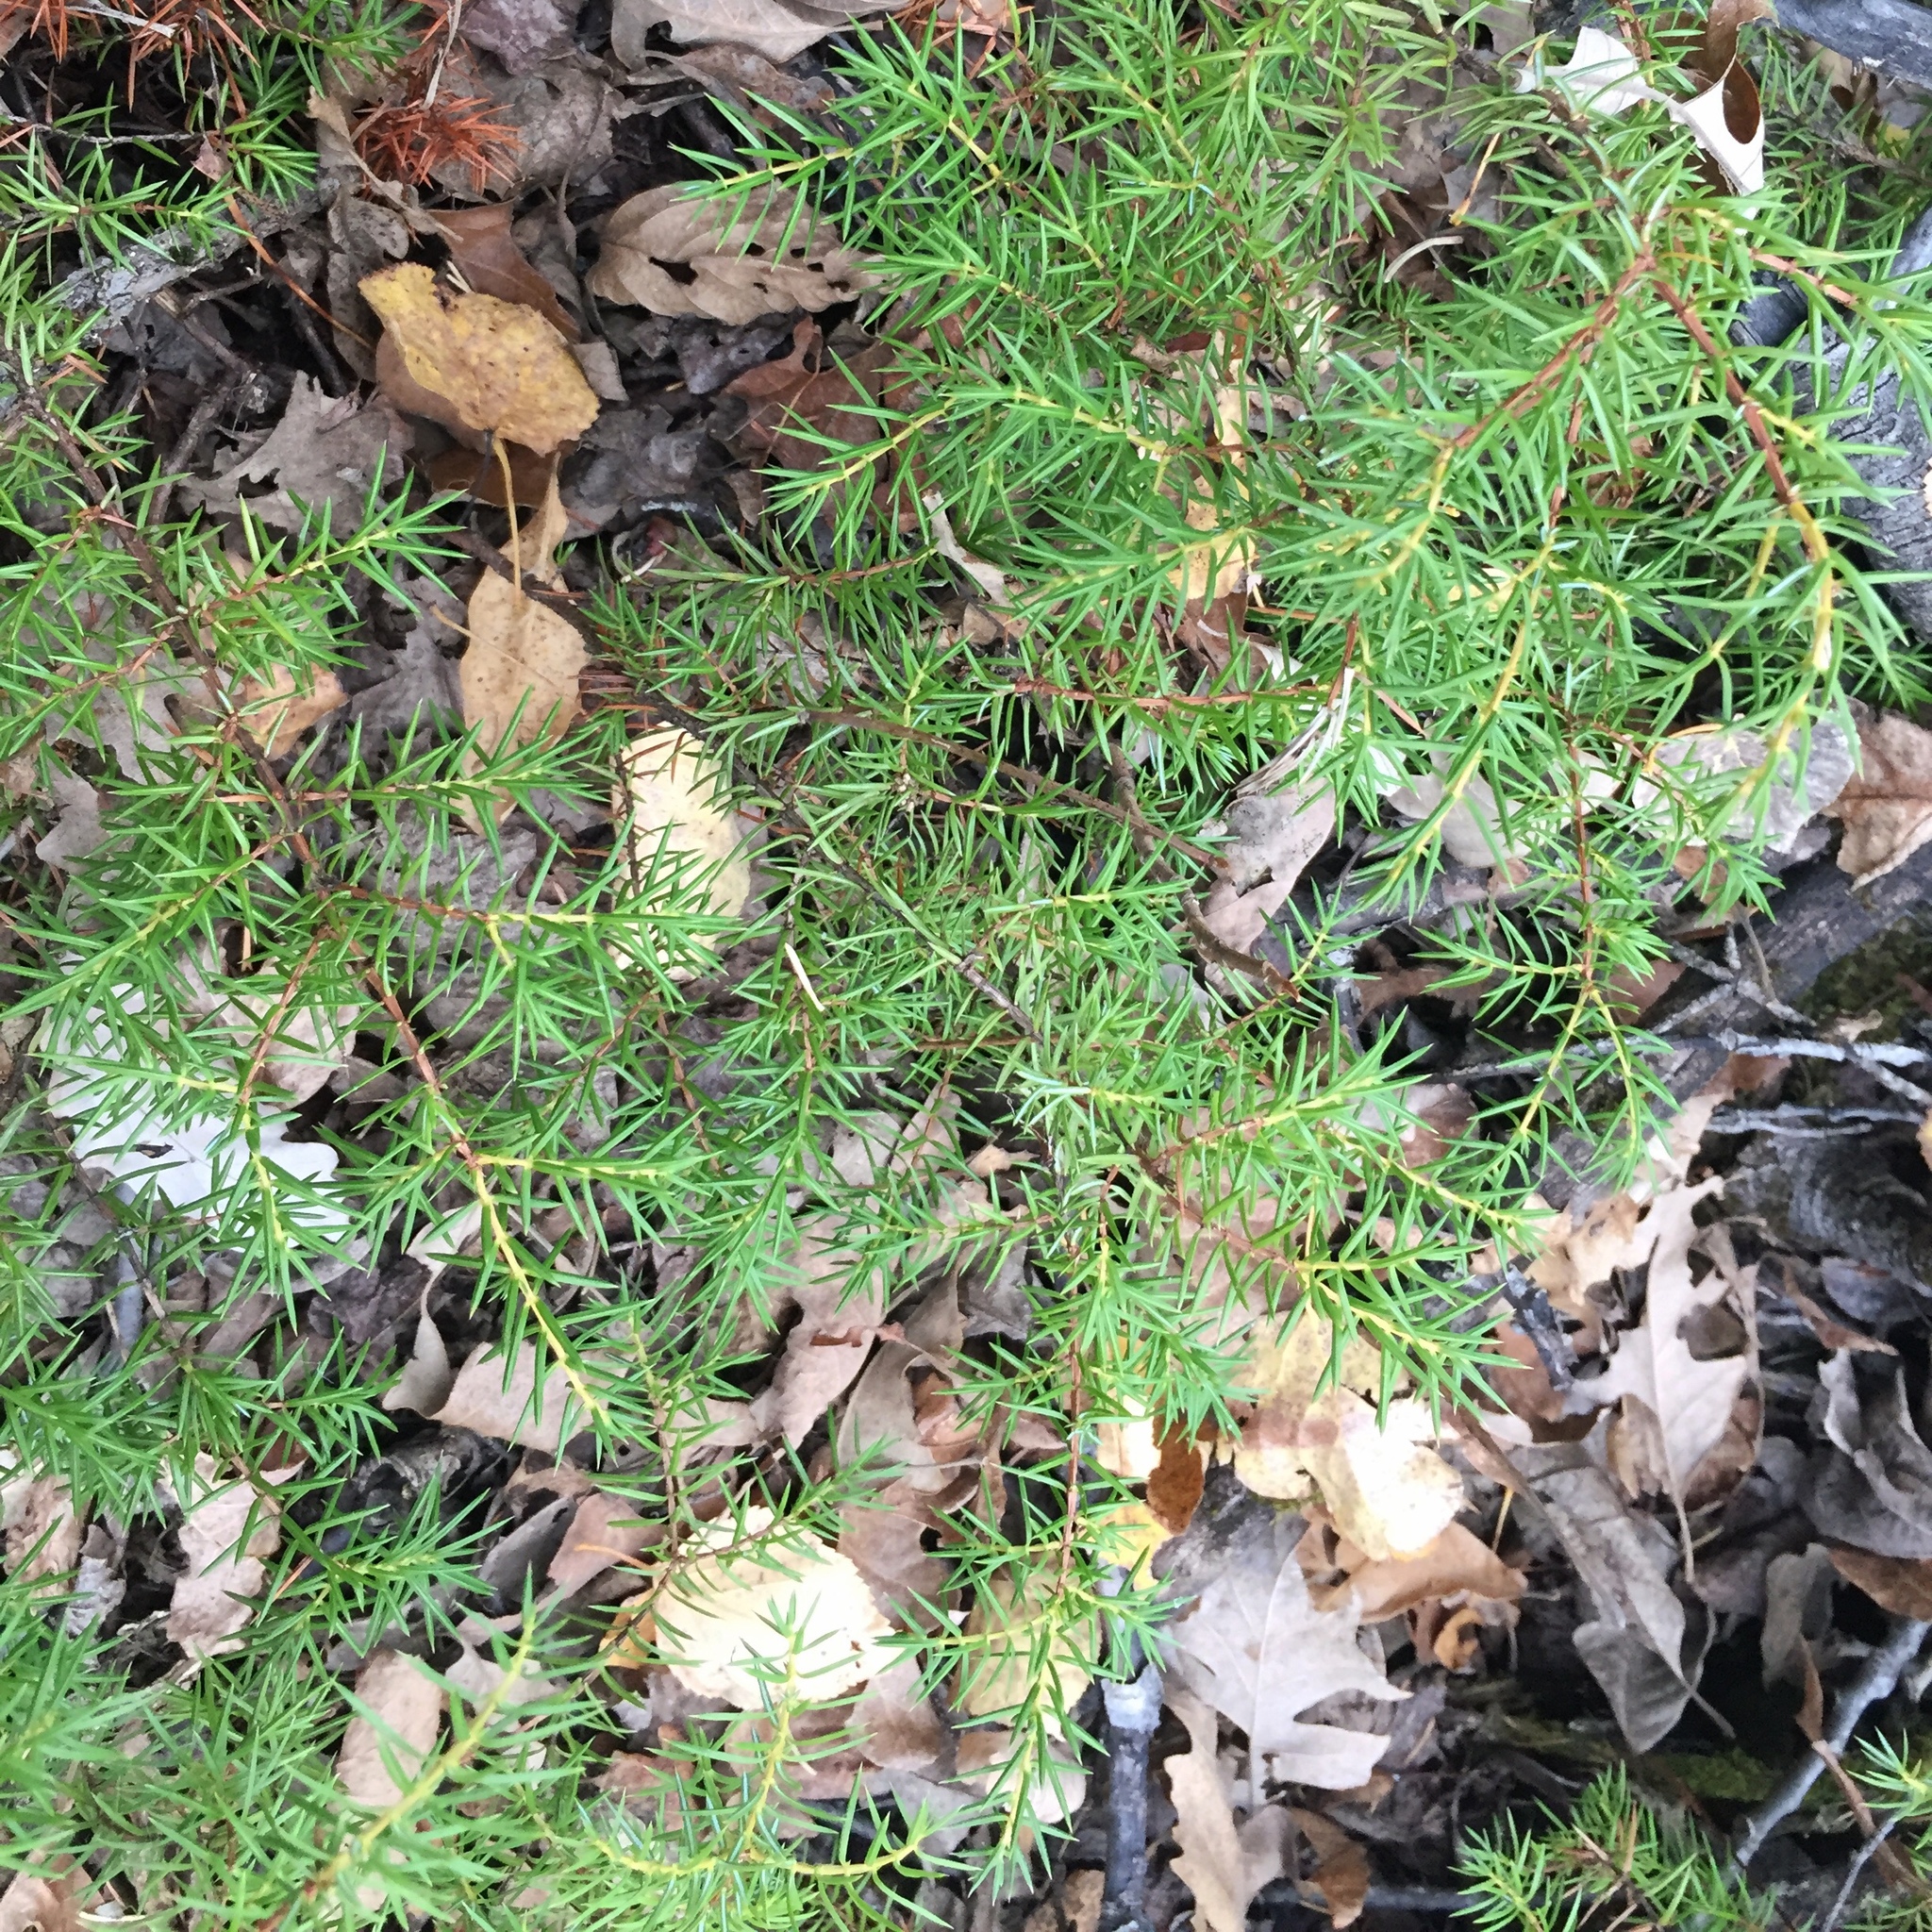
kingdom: Plantae
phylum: Tracheophyta
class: Pinopsida
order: Pinales
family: Cupressaceae
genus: Juniperus
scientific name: Juniperus communis
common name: Common juniper
